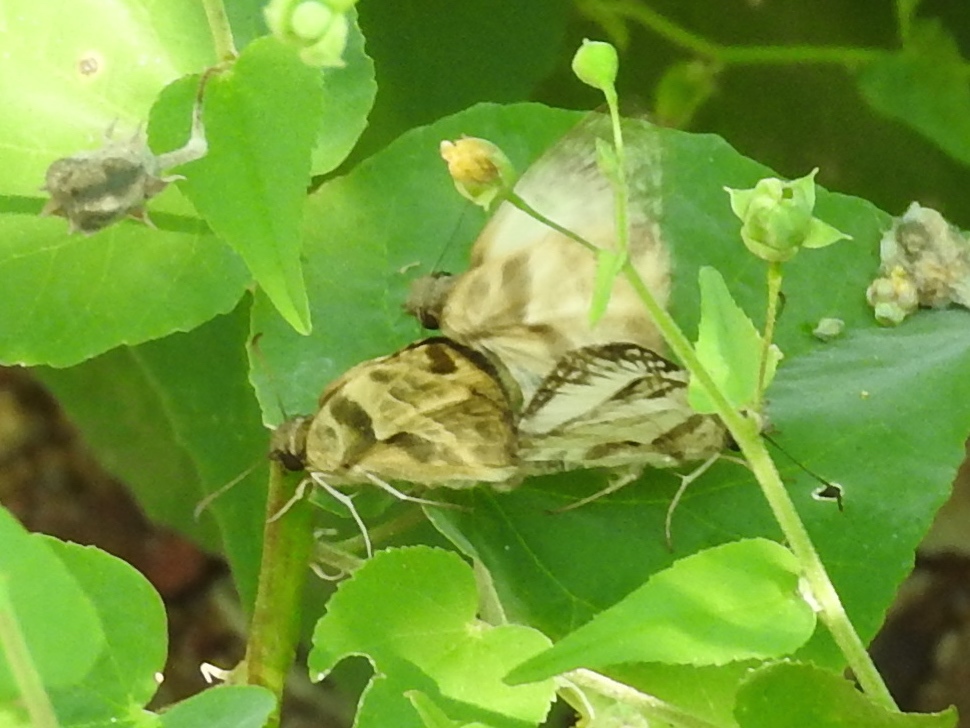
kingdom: Animalia
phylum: Arthropoda
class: Insecta
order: Lepidoptera
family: Hesperiidae
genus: Heliopetes
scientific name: Heliopetes laviana
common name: Laviana white-skipper
